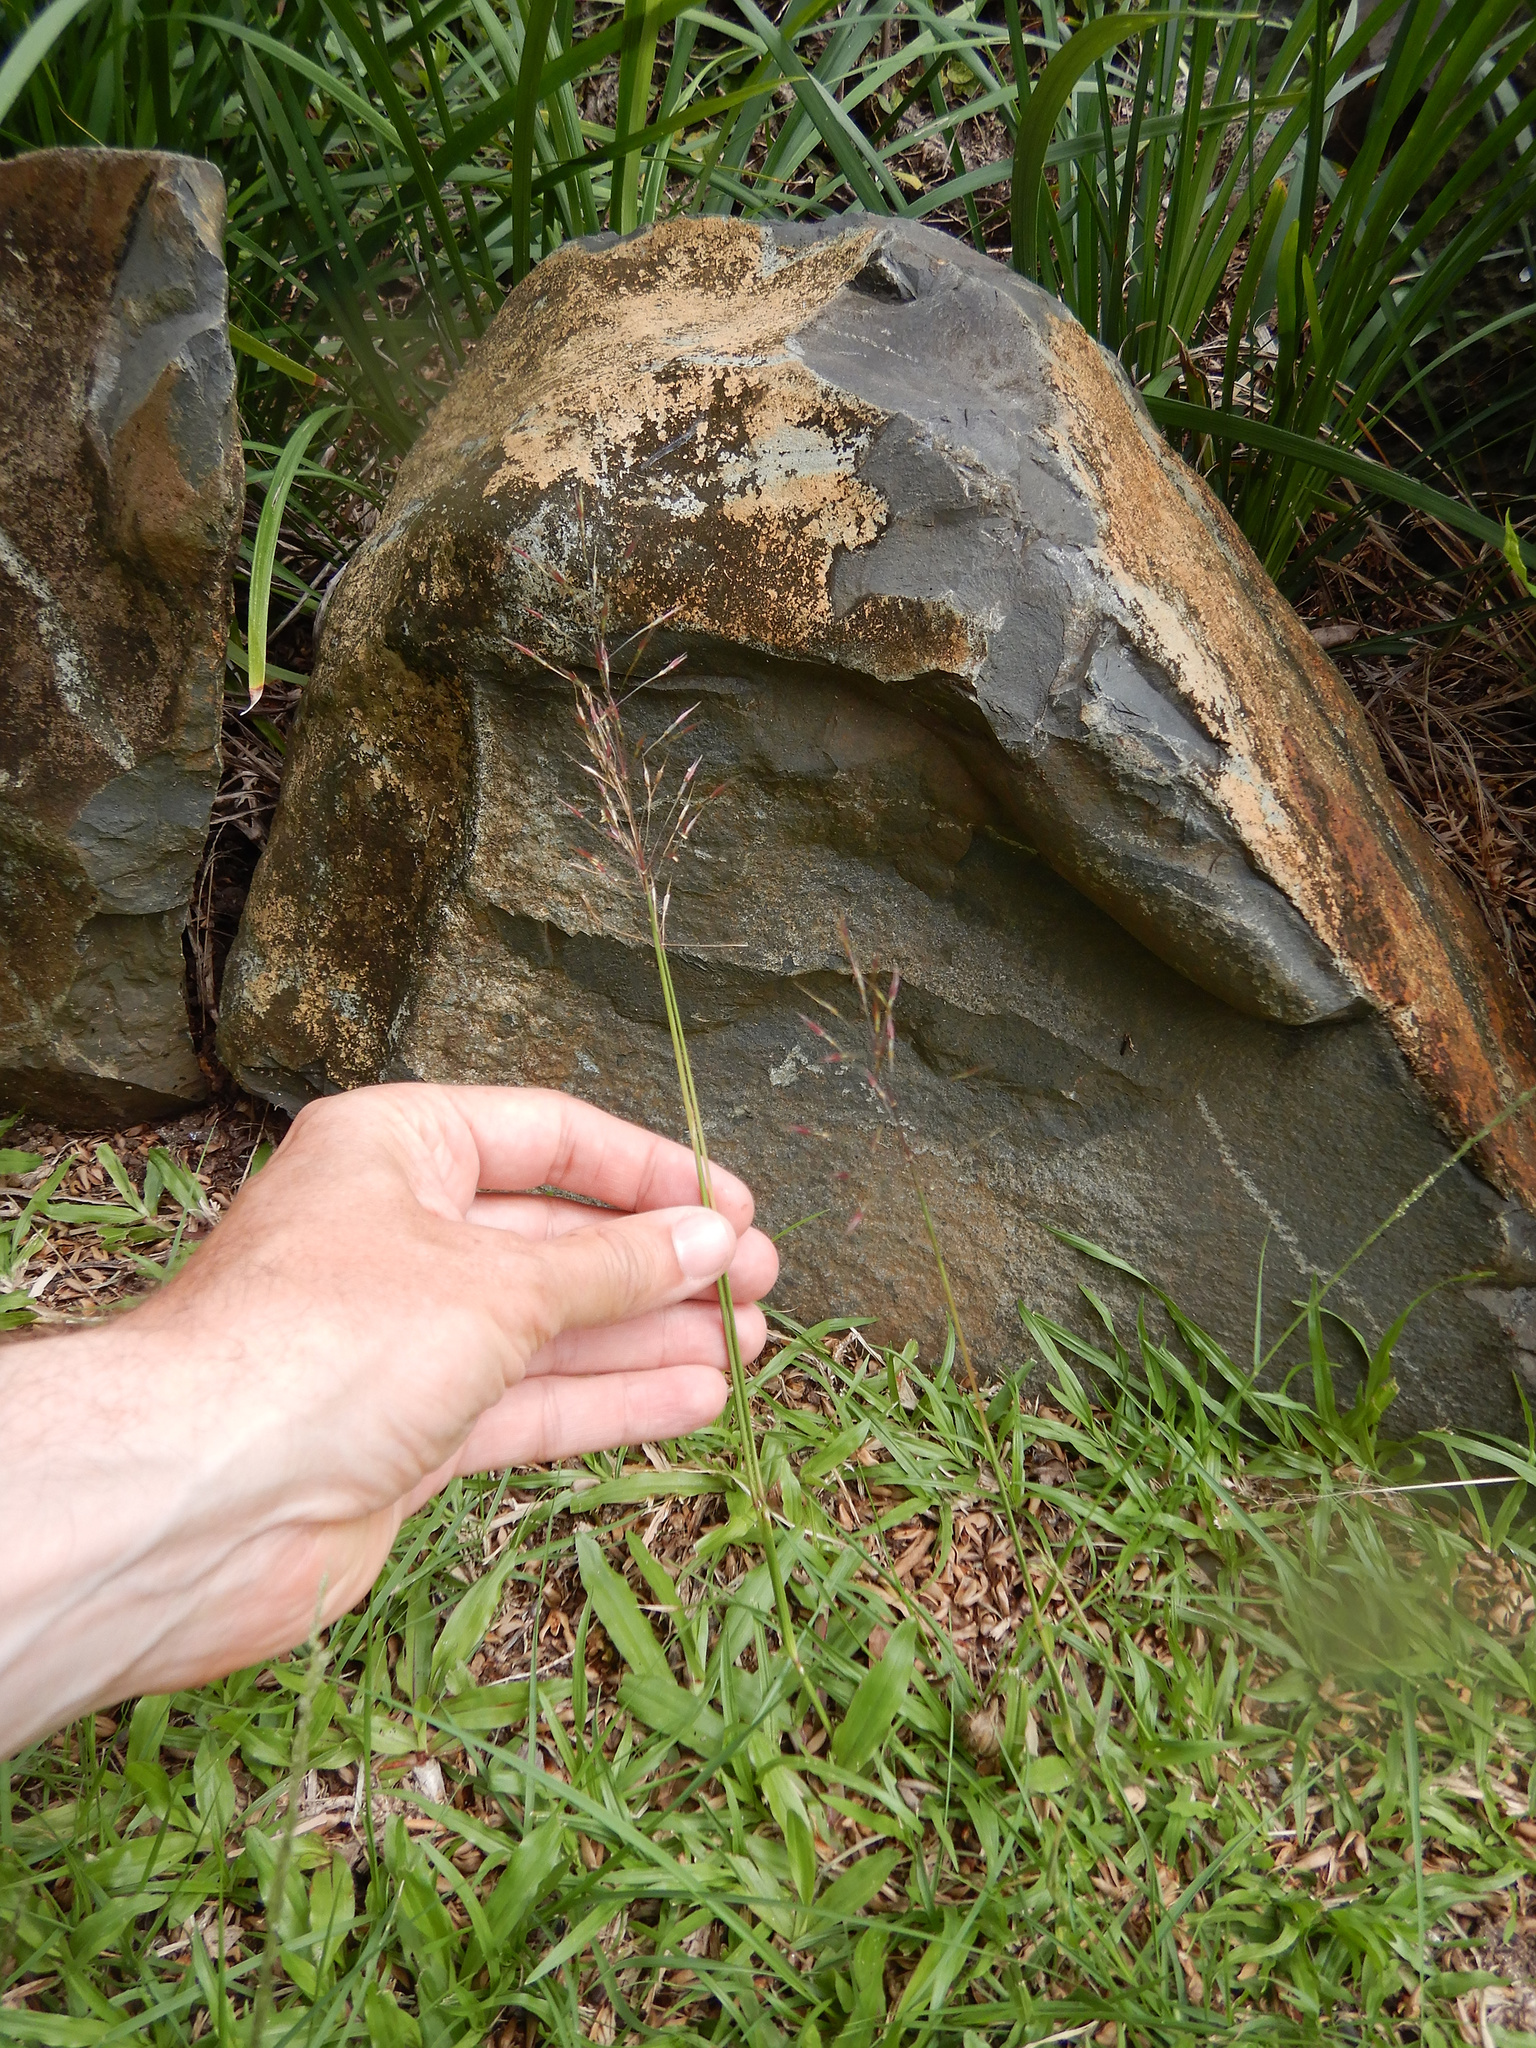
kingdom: Plantae
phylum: Tracheophyta
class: Liliopsida
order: Poales
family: Poaceae
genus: Chrysopogon
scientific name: Chrysopogon aciculatus
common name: Pilipiliula
